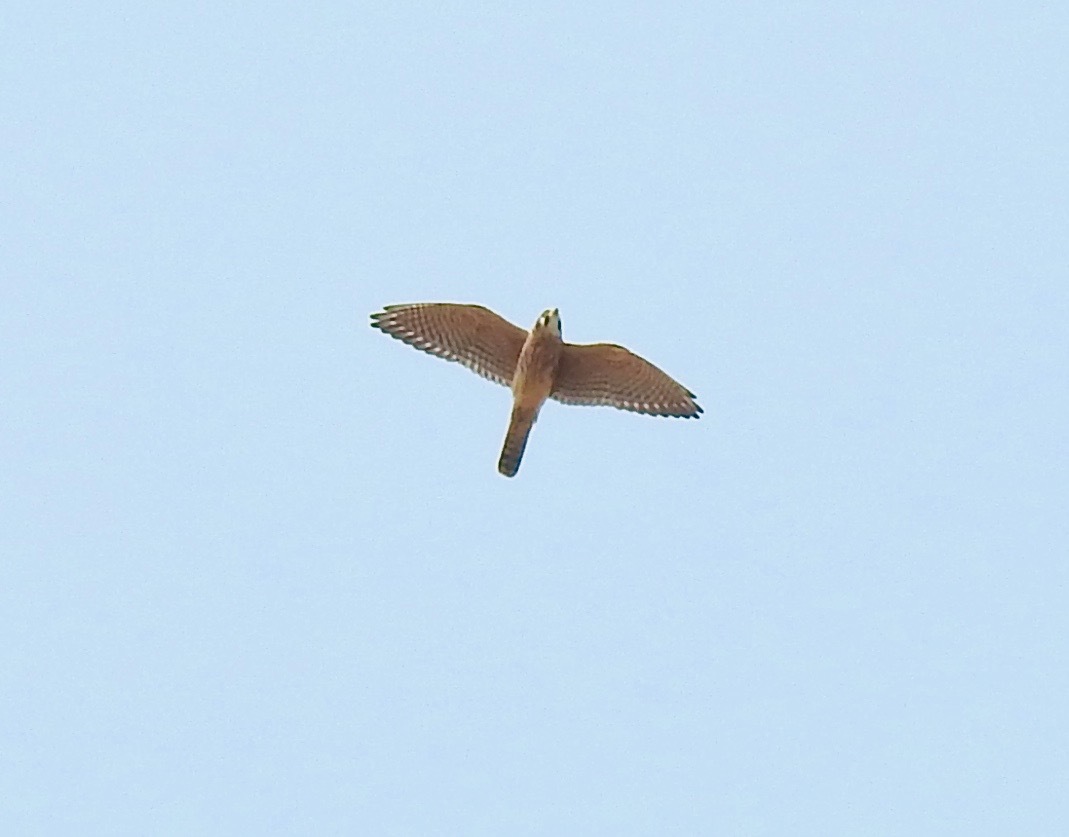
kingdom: Animalia
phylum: Chordata
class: Aves
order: Falconiformes
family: Falconidae
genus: Falco
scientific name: Falco sparverius
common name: American kestrel
